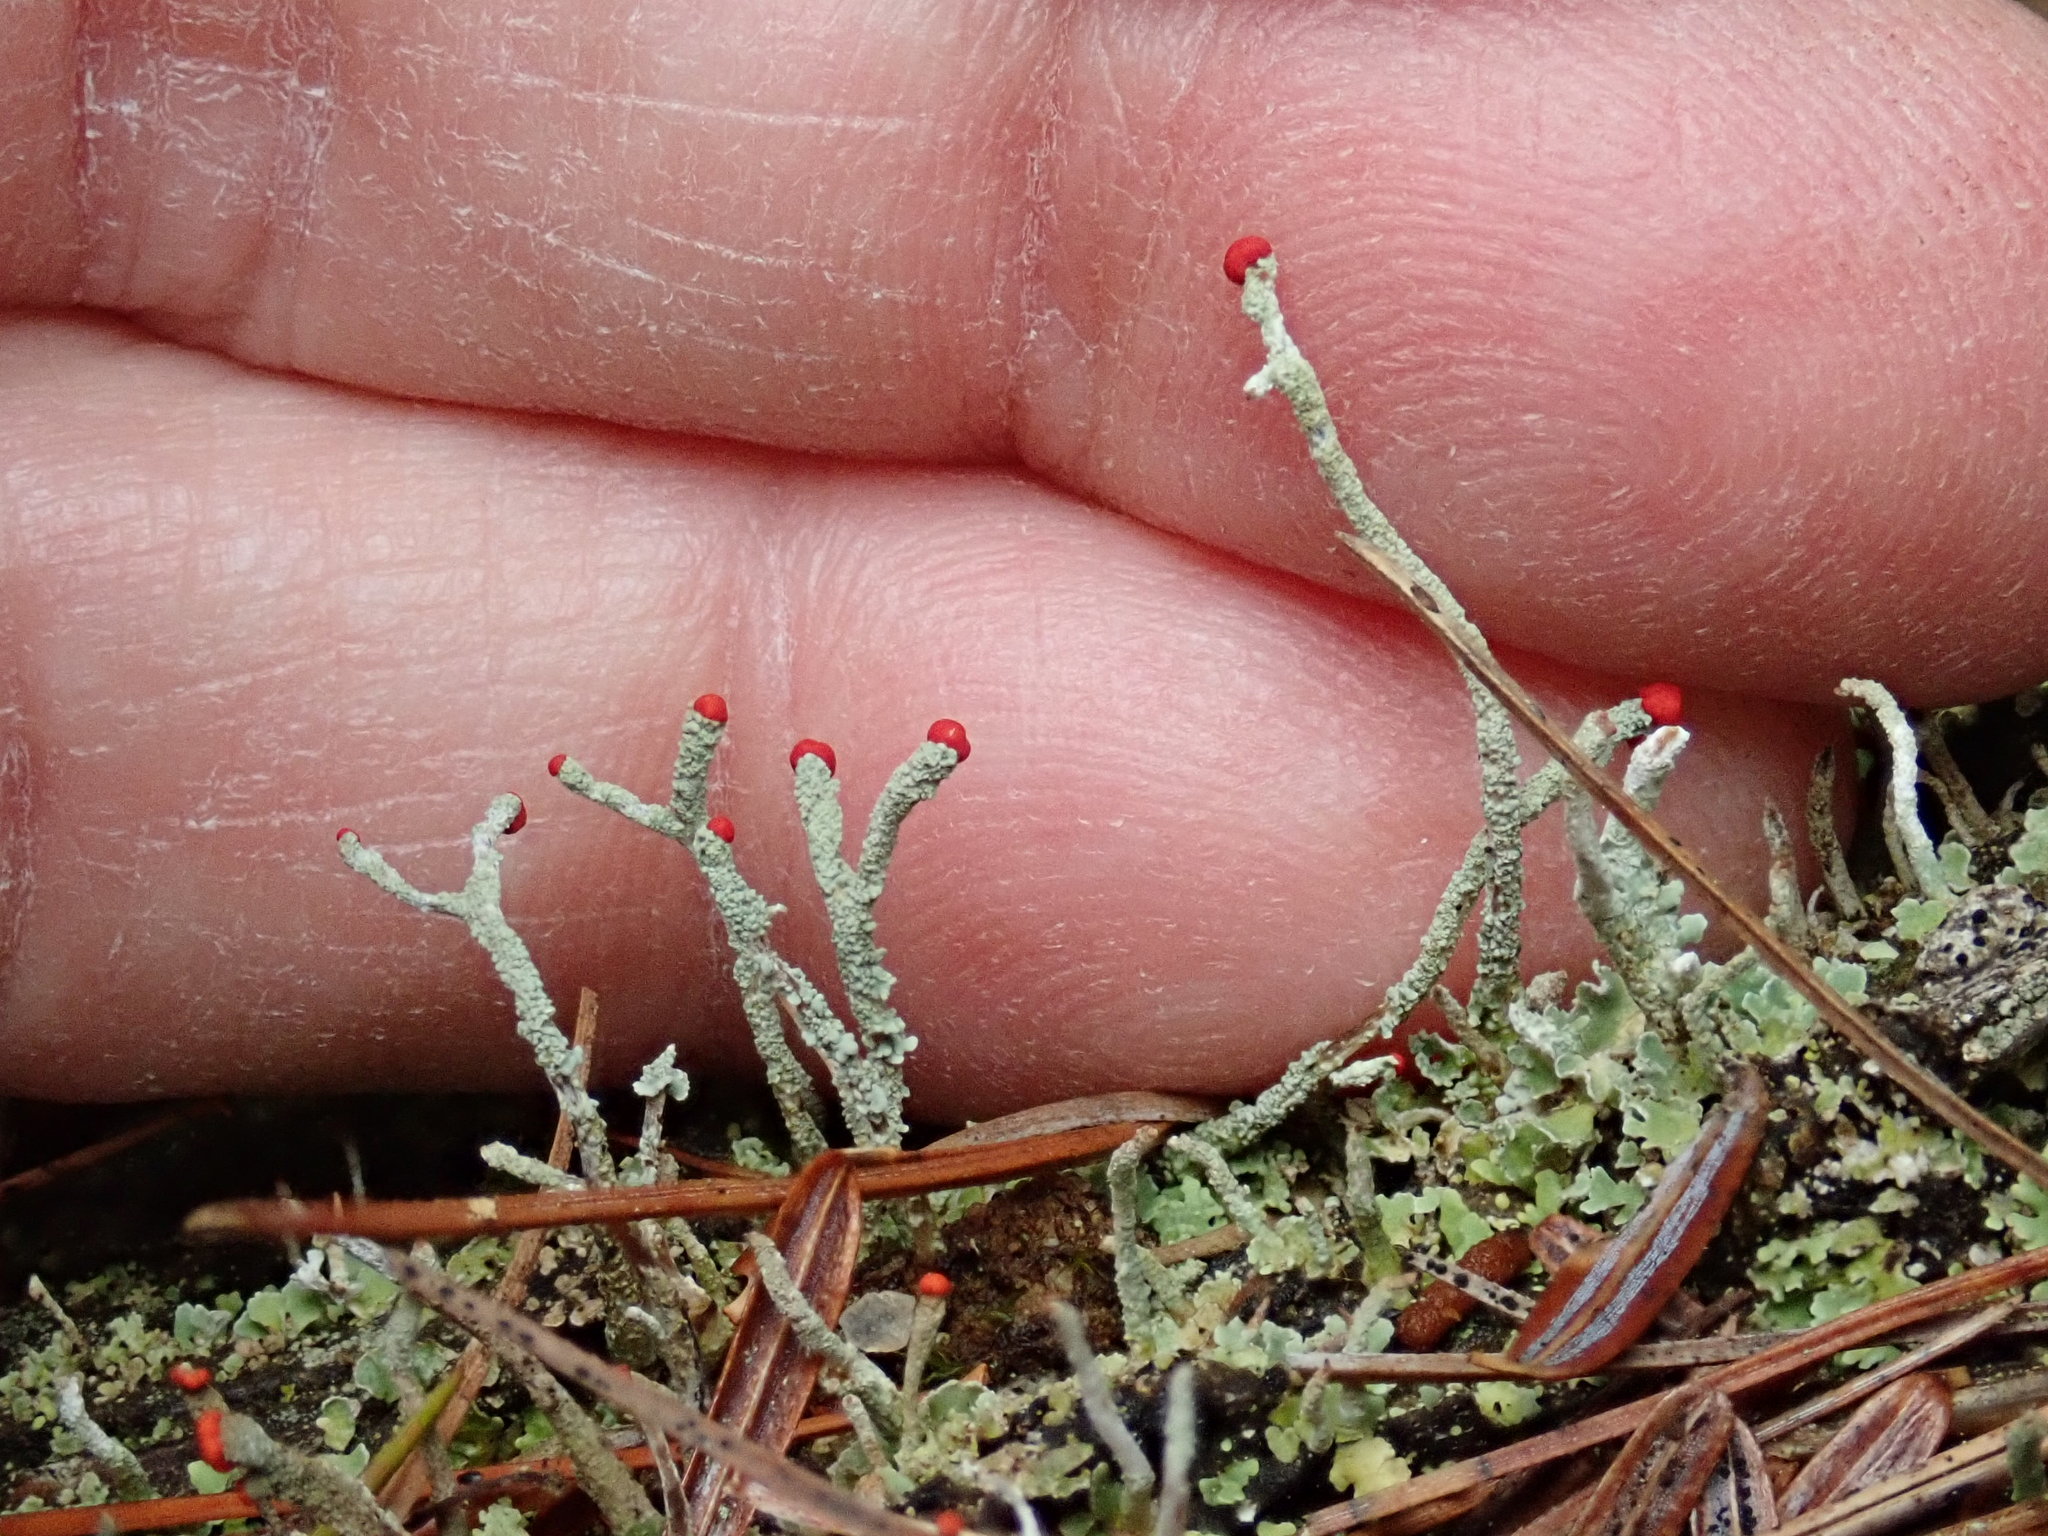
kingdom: Fungi
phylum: Ascomycota
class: Lecanoromycetes
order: Lecanorales
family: Cladoniaceae
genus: Cladonia
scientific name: Cladonia macilenta
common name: Lipstick powderhorn
